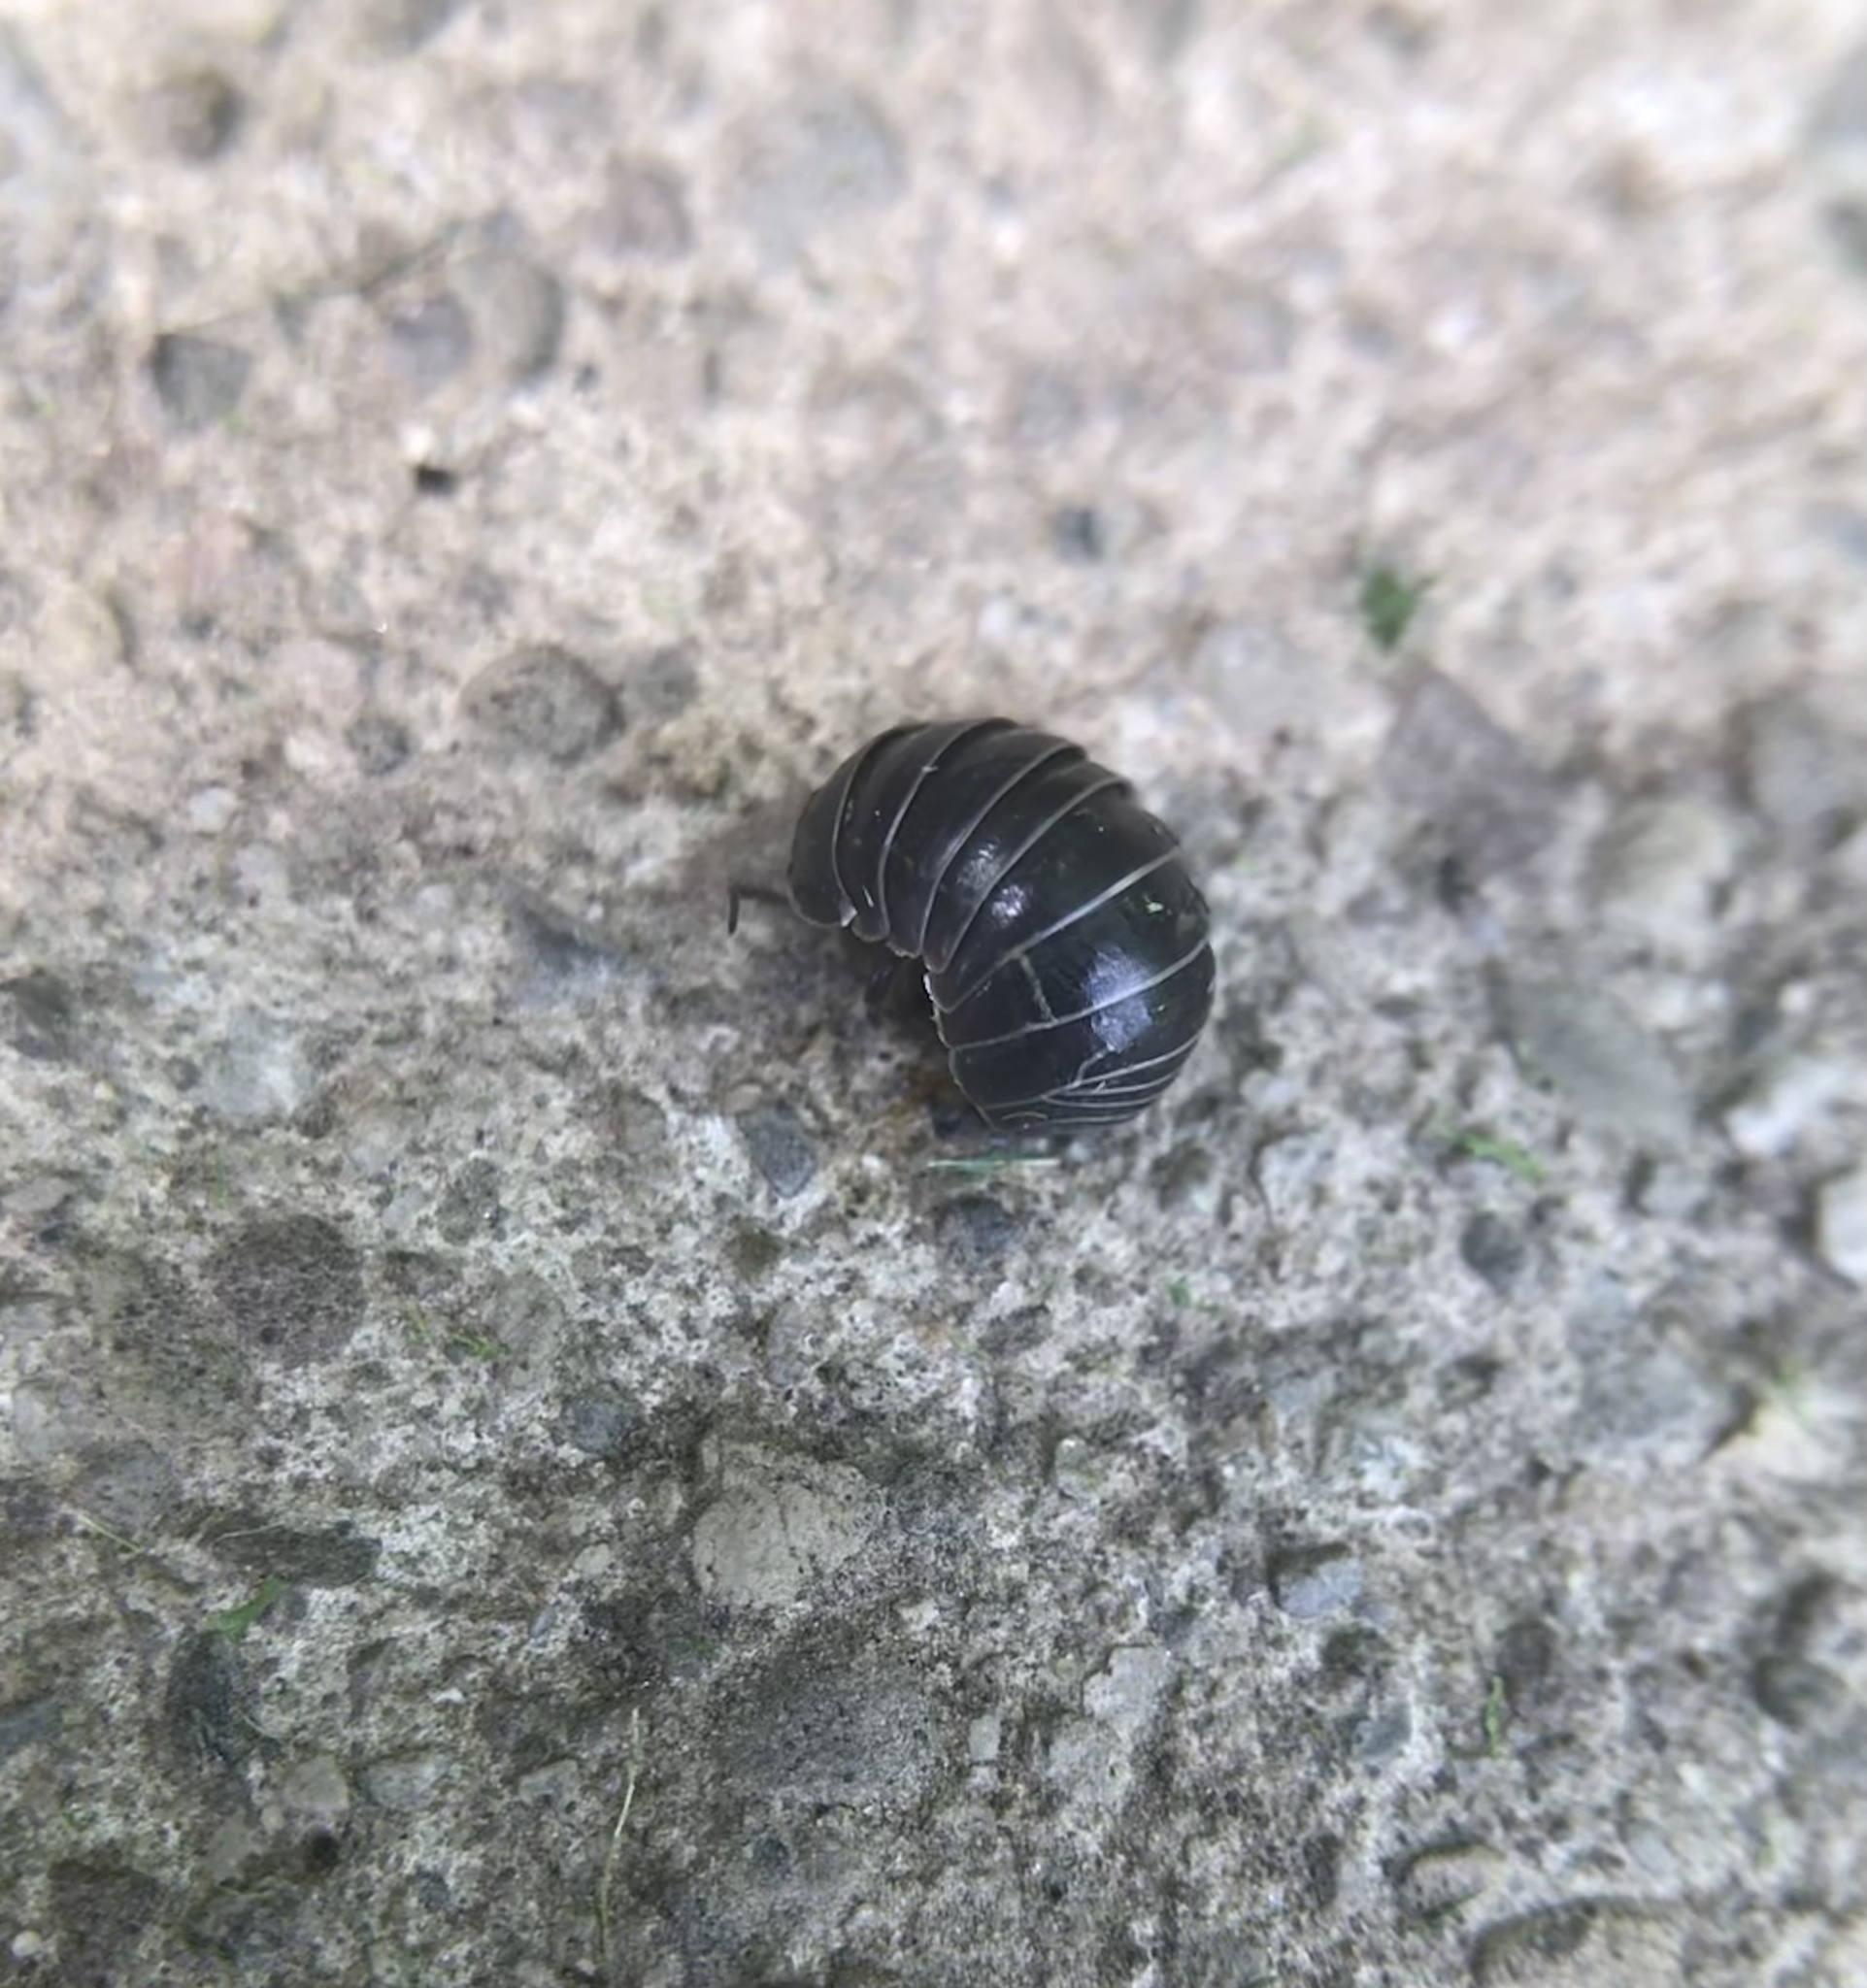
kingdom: Animalia
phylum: Arthropoda
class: Malacostraca
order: Isopoda
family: Armadillidiidae
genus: Armadillidium
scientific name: Armadillidium vulgare
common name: Common pill woodlouse
